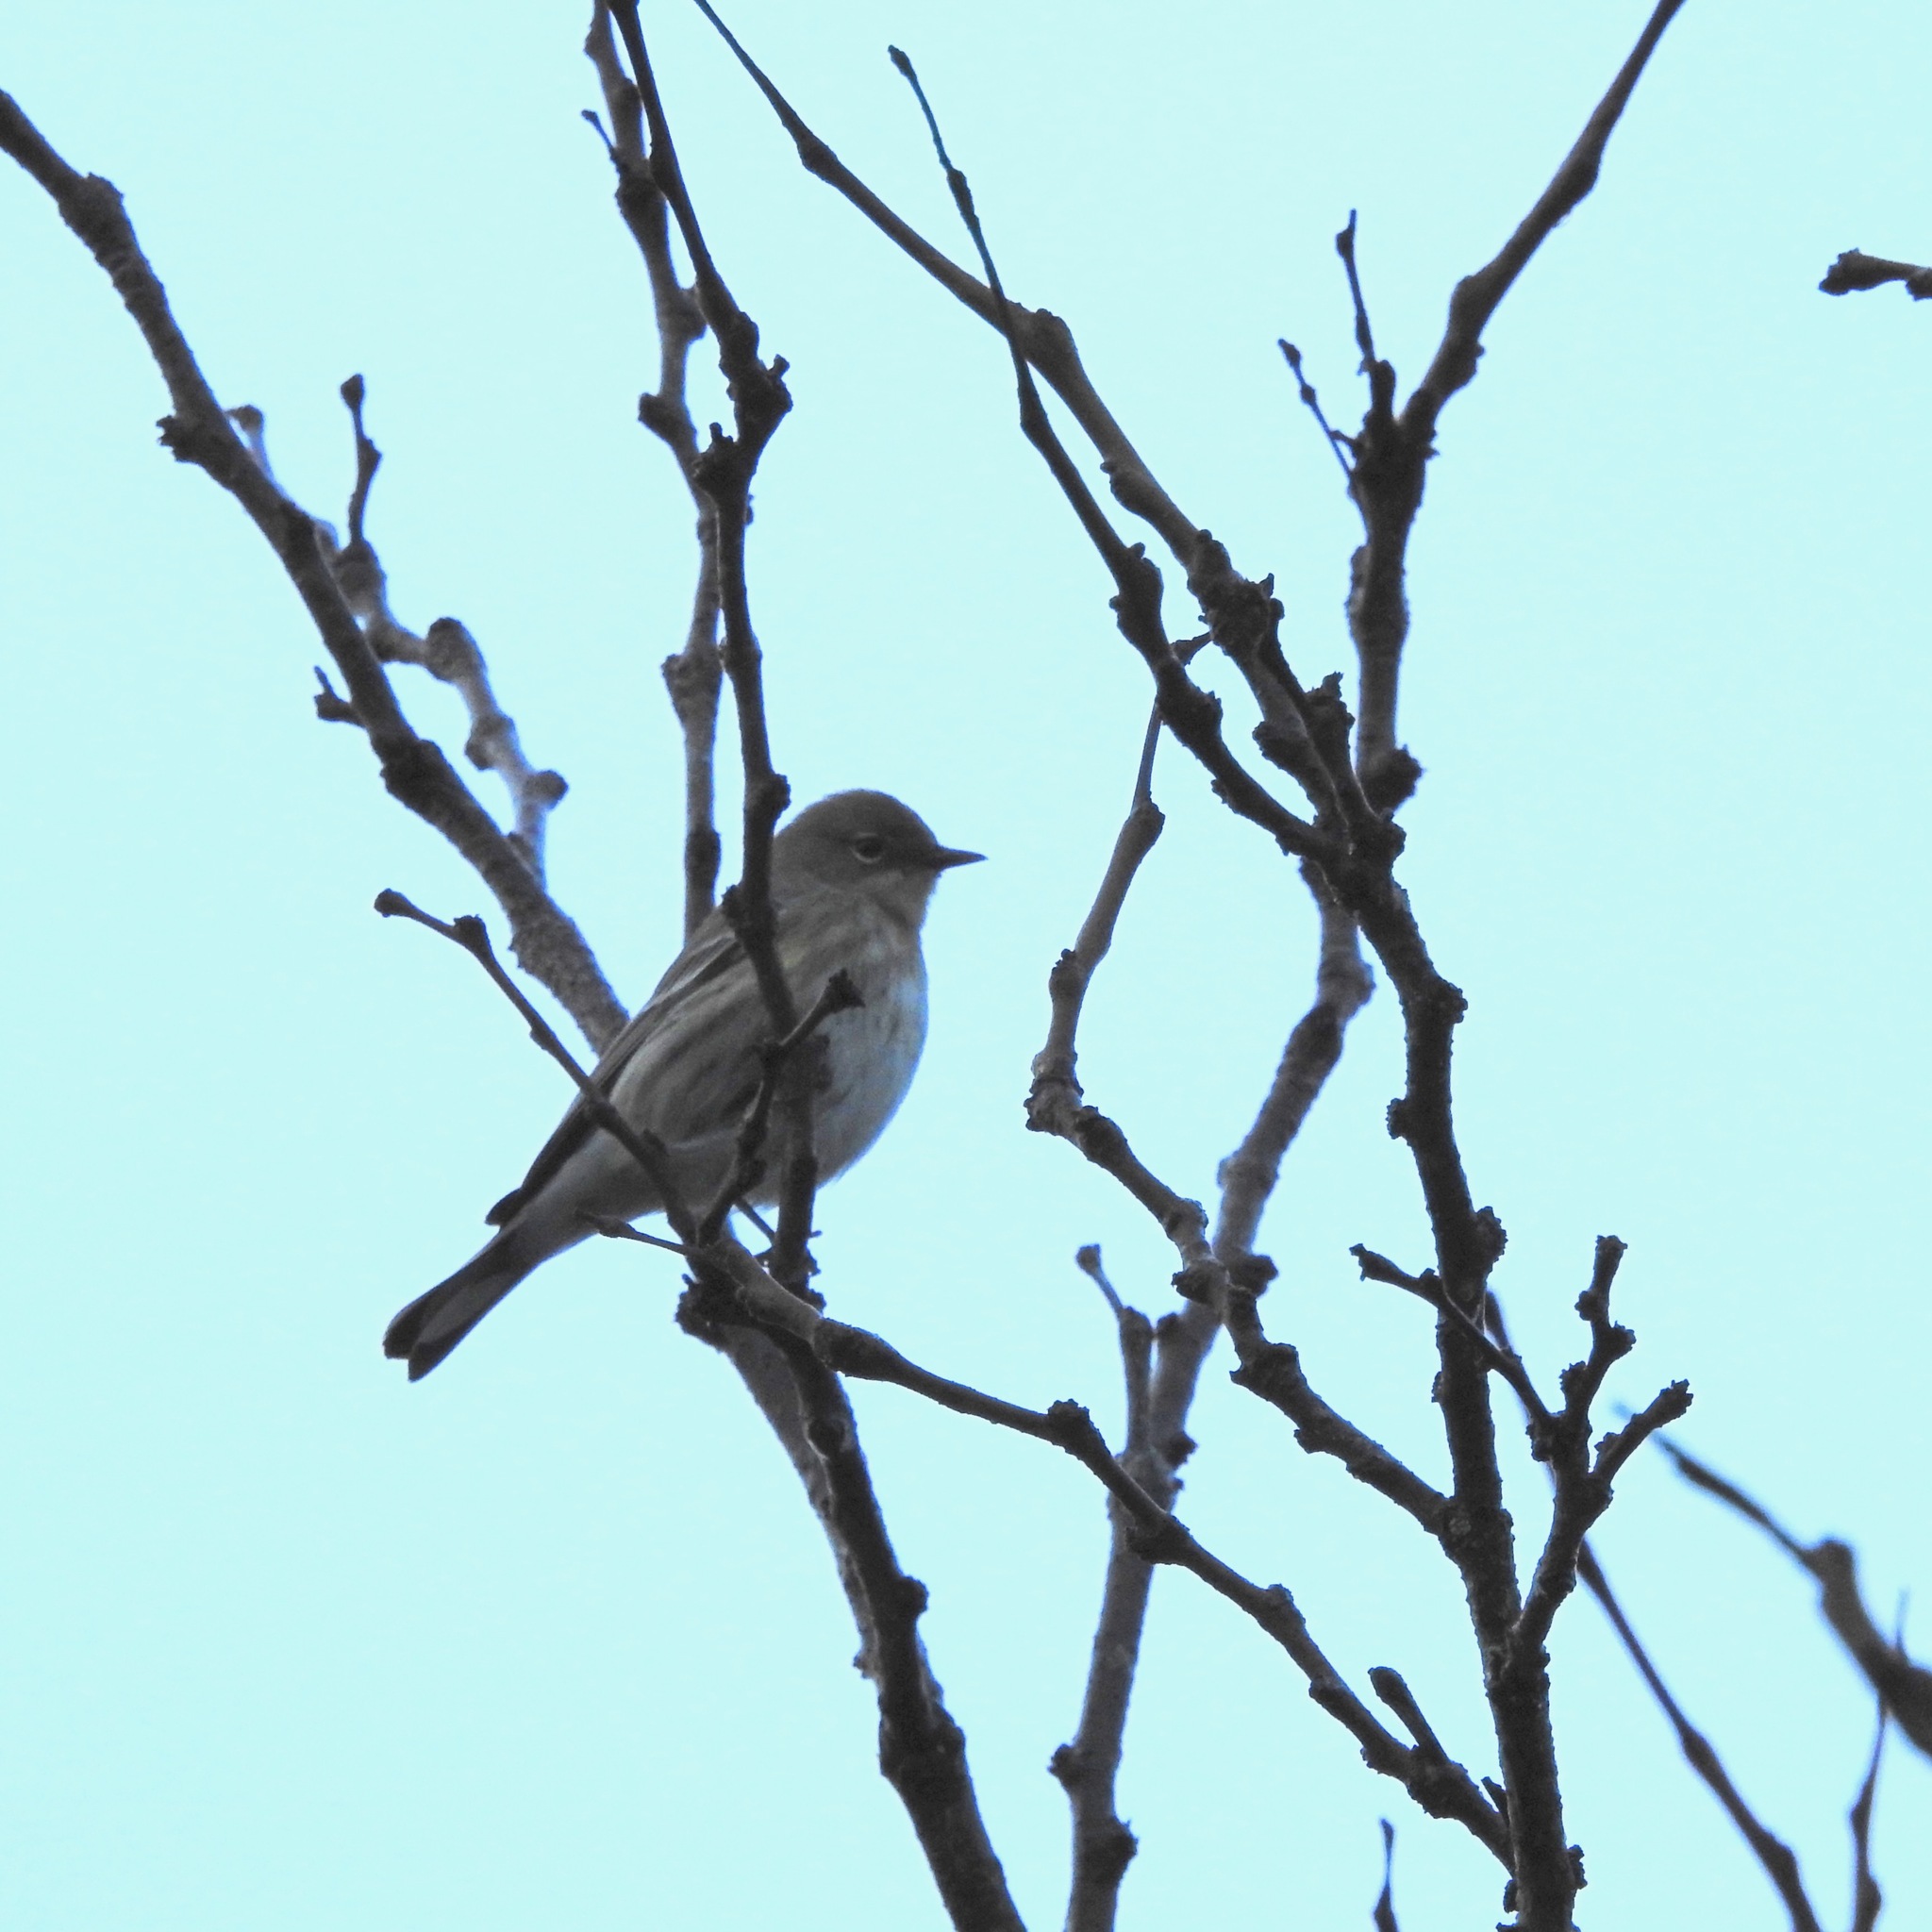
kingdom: Animalia
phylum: Chordata
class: Aves
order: Passeriformes
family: Parulidae
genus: Setophaga
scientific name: Setophaga coronata
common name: Myrtle warbler
